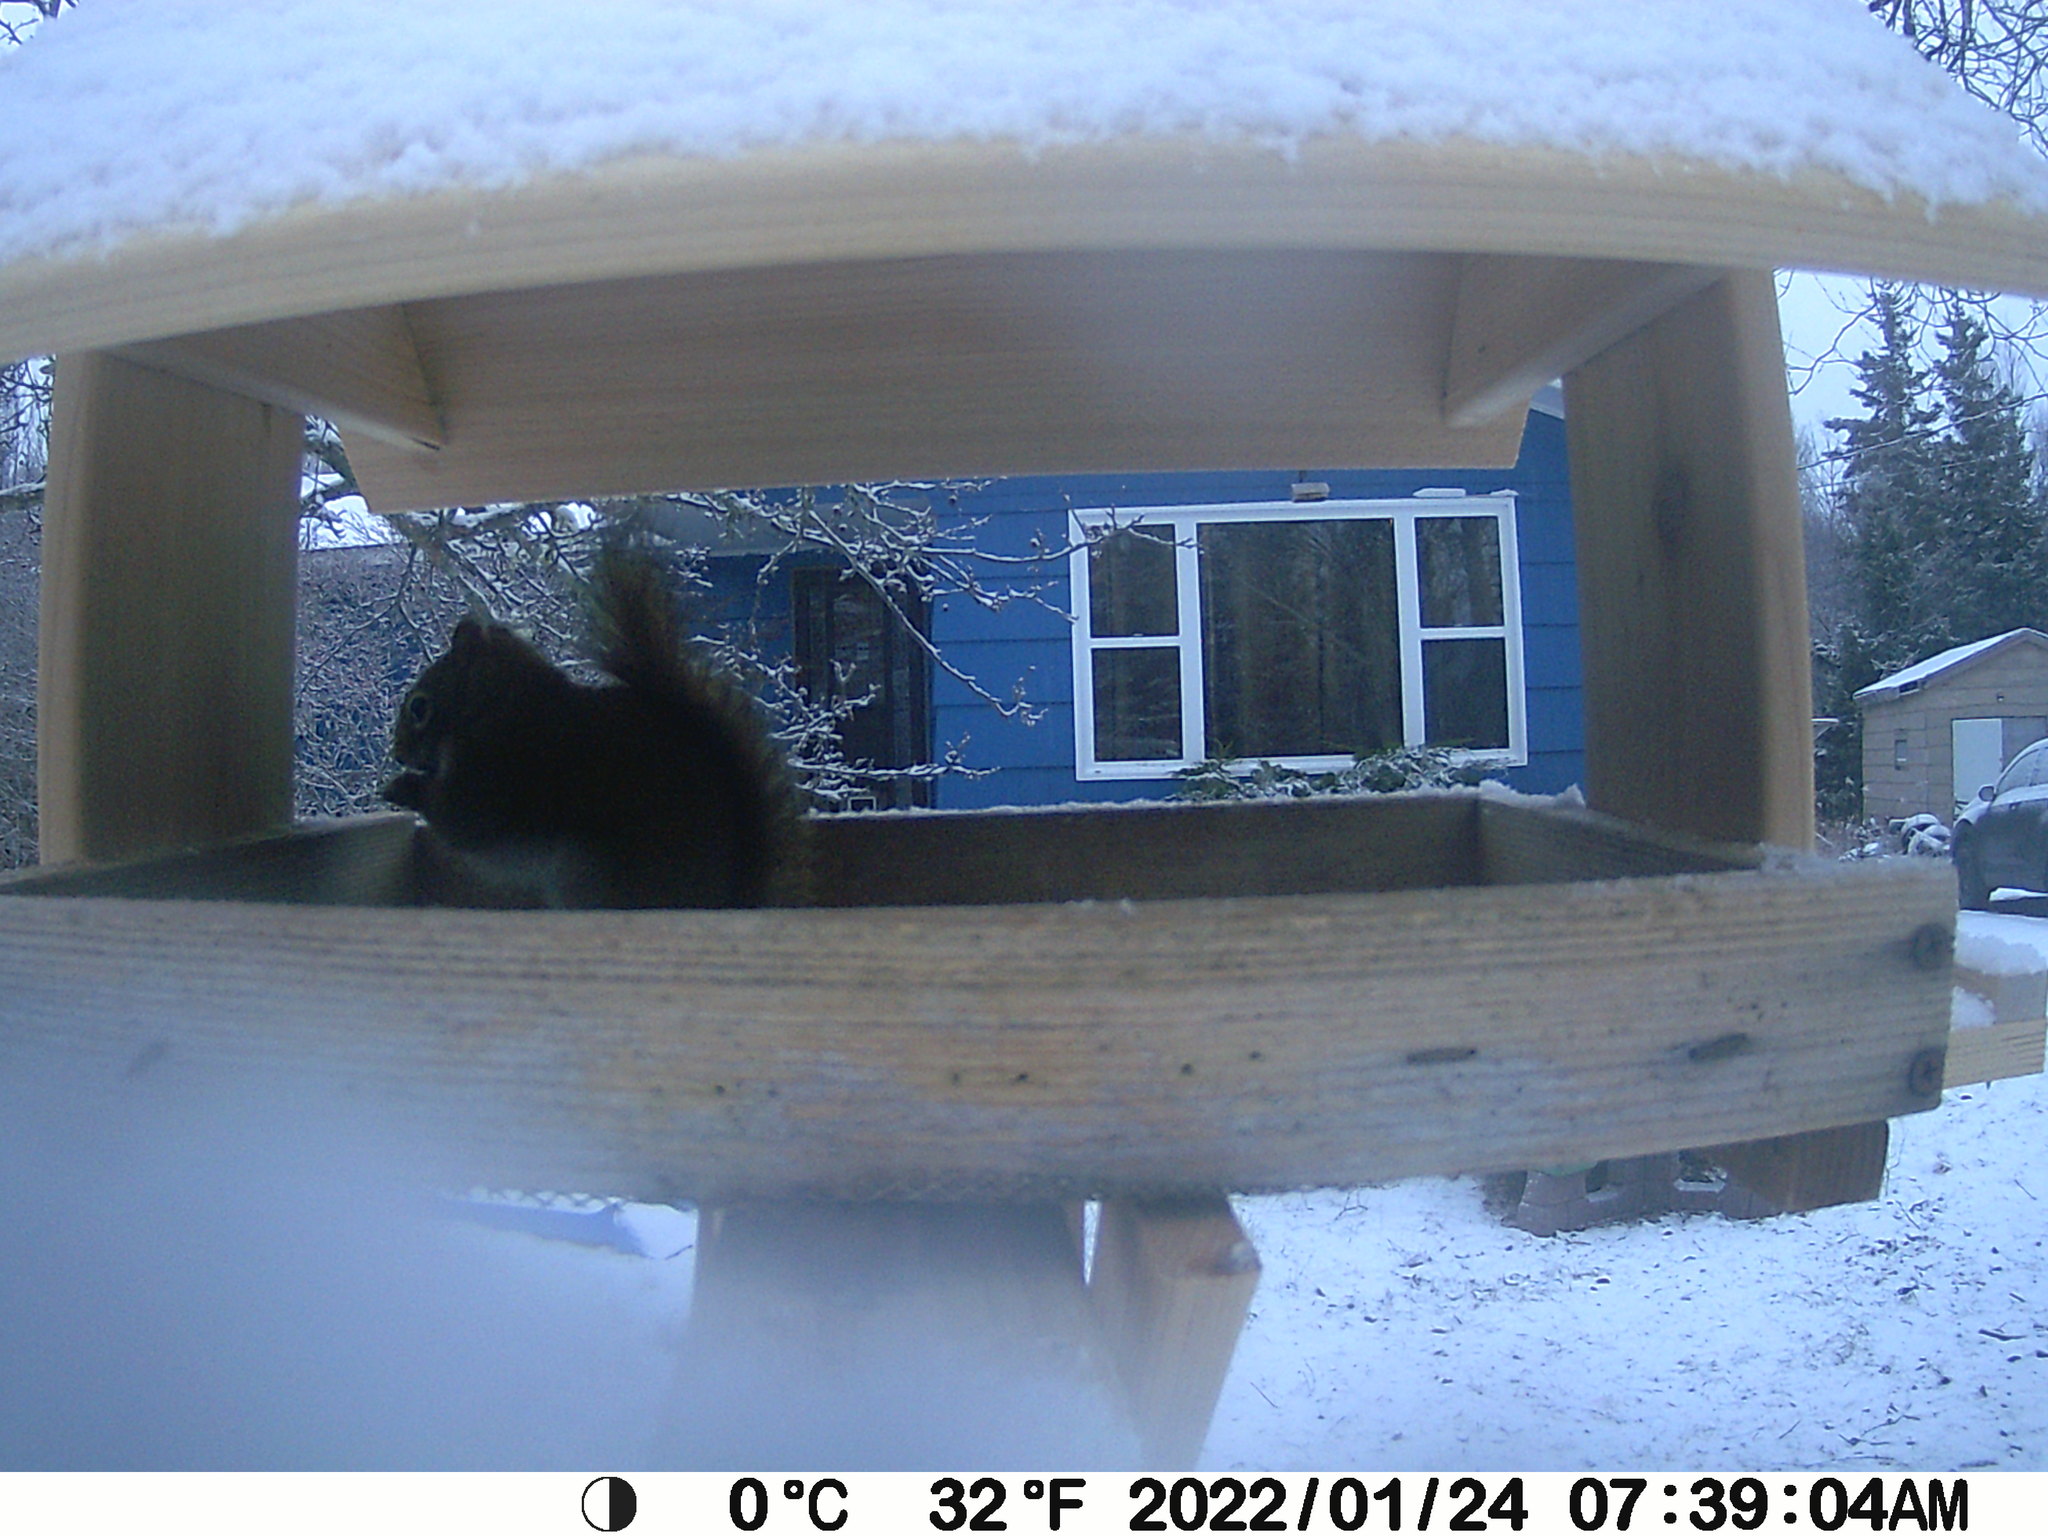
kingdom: Animalia
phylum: Chordata
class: Mammalia
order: Rodentia
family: Sciuridae
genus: Tamiasciurus
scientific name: Tamiasciurus hudsonicus
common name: Red squirrel
